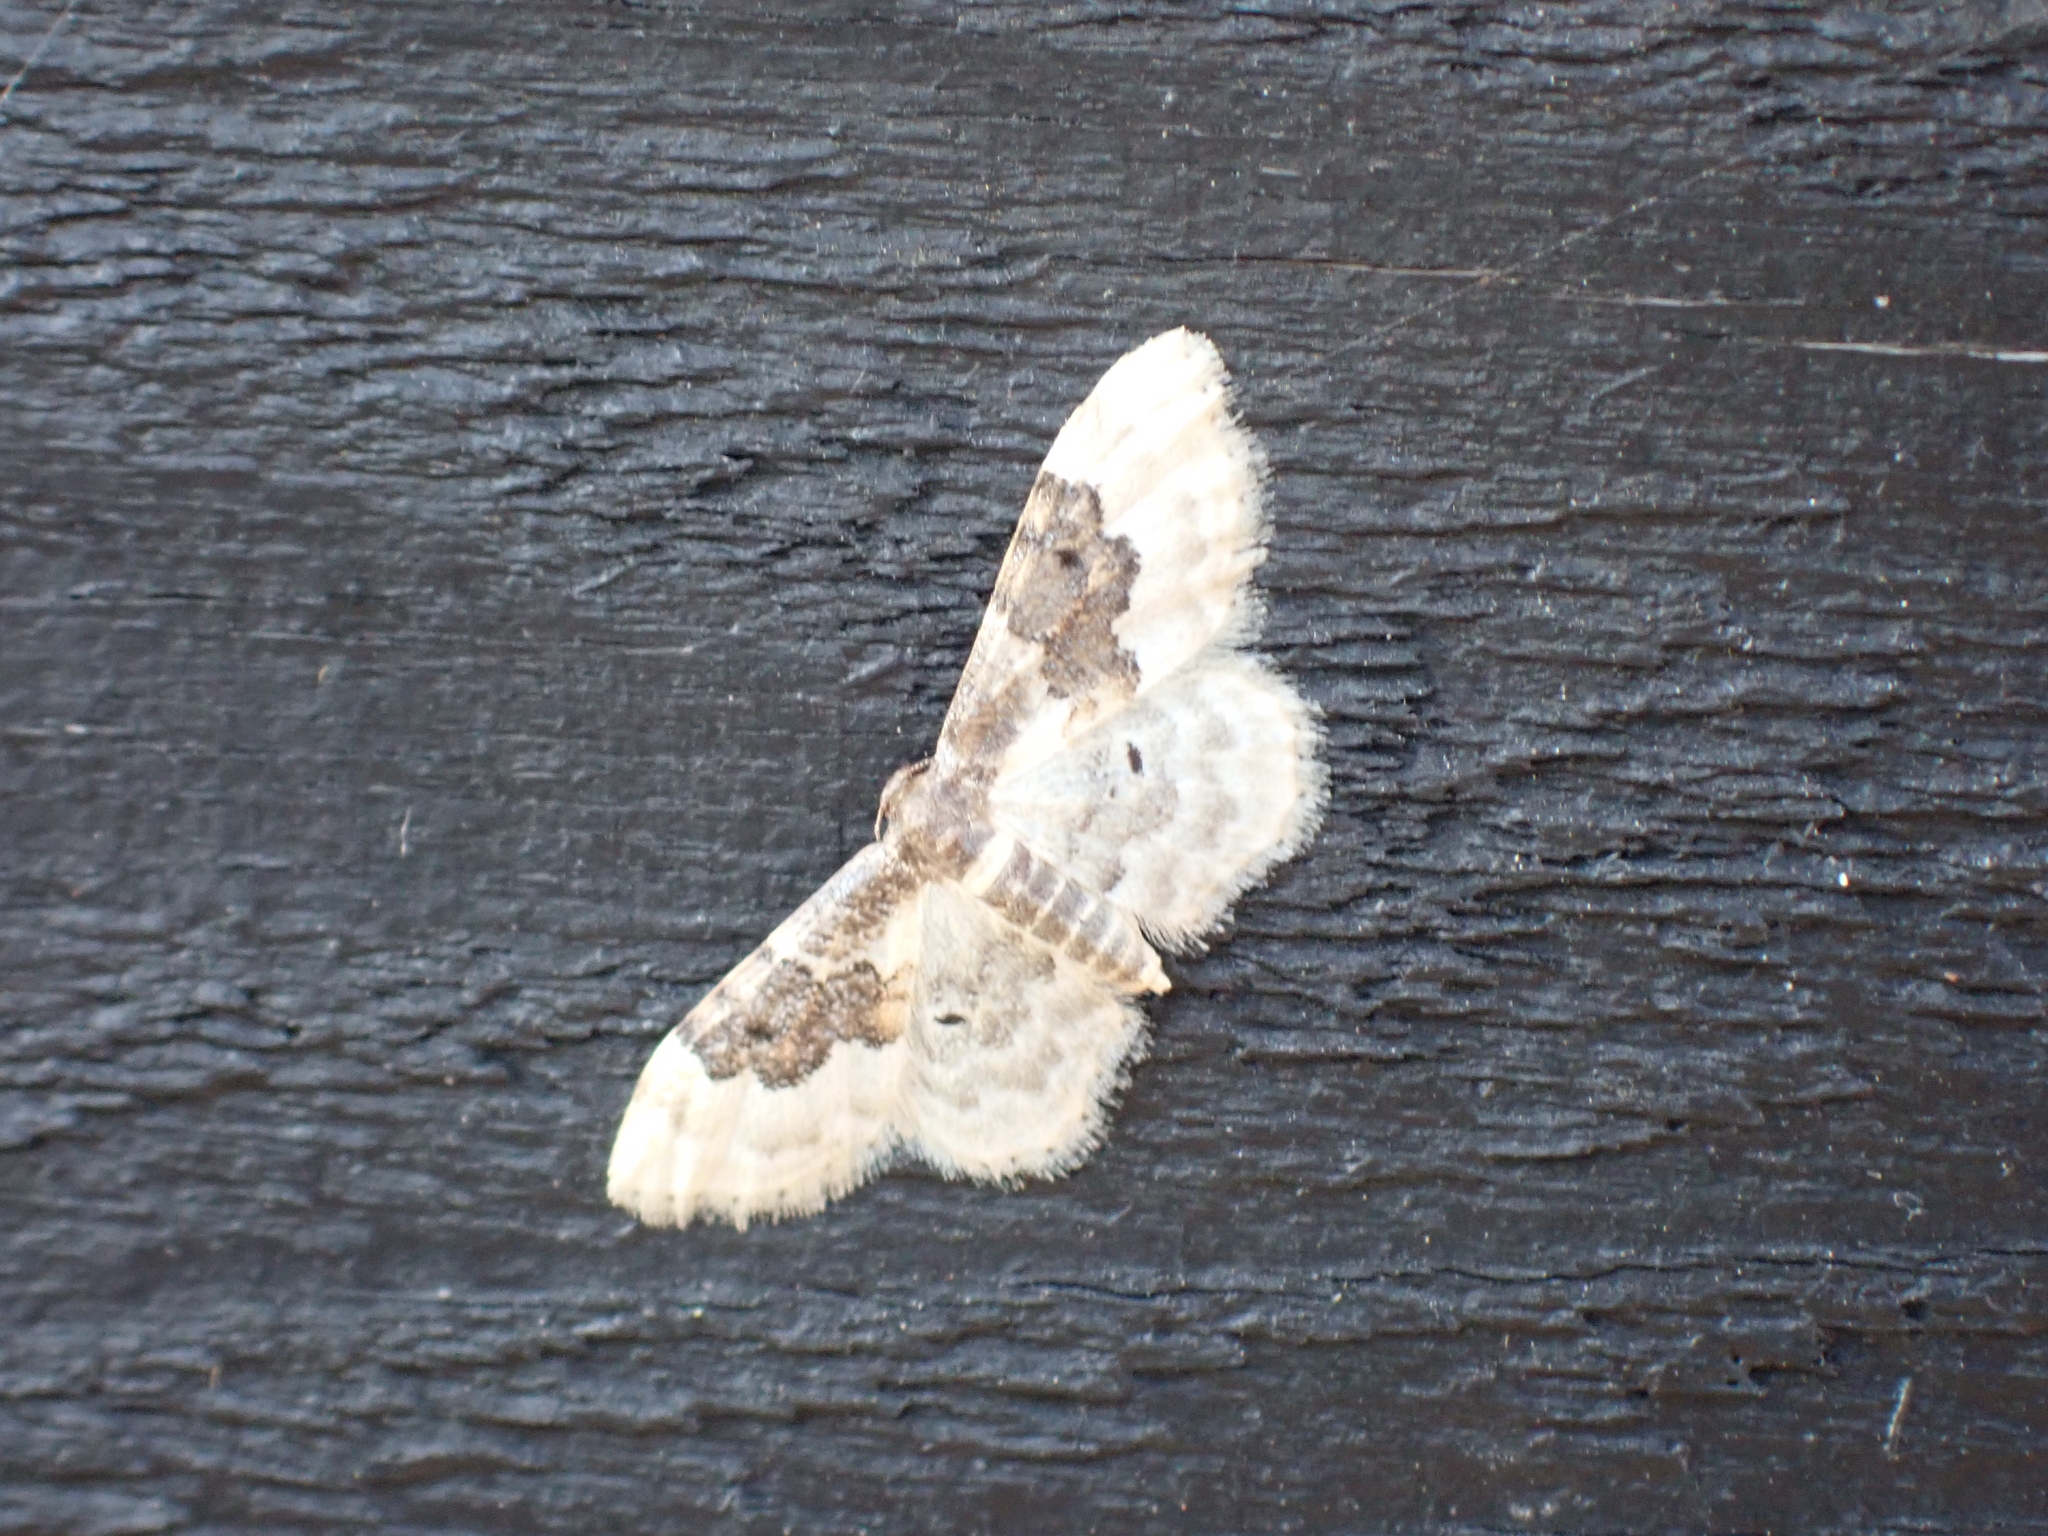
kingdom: Animalia
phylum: Arthropoda
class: Insecta
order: Lepidoptera
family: Geometridae
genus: Idaea
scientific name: Idaea rusticata
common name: Least carpet
